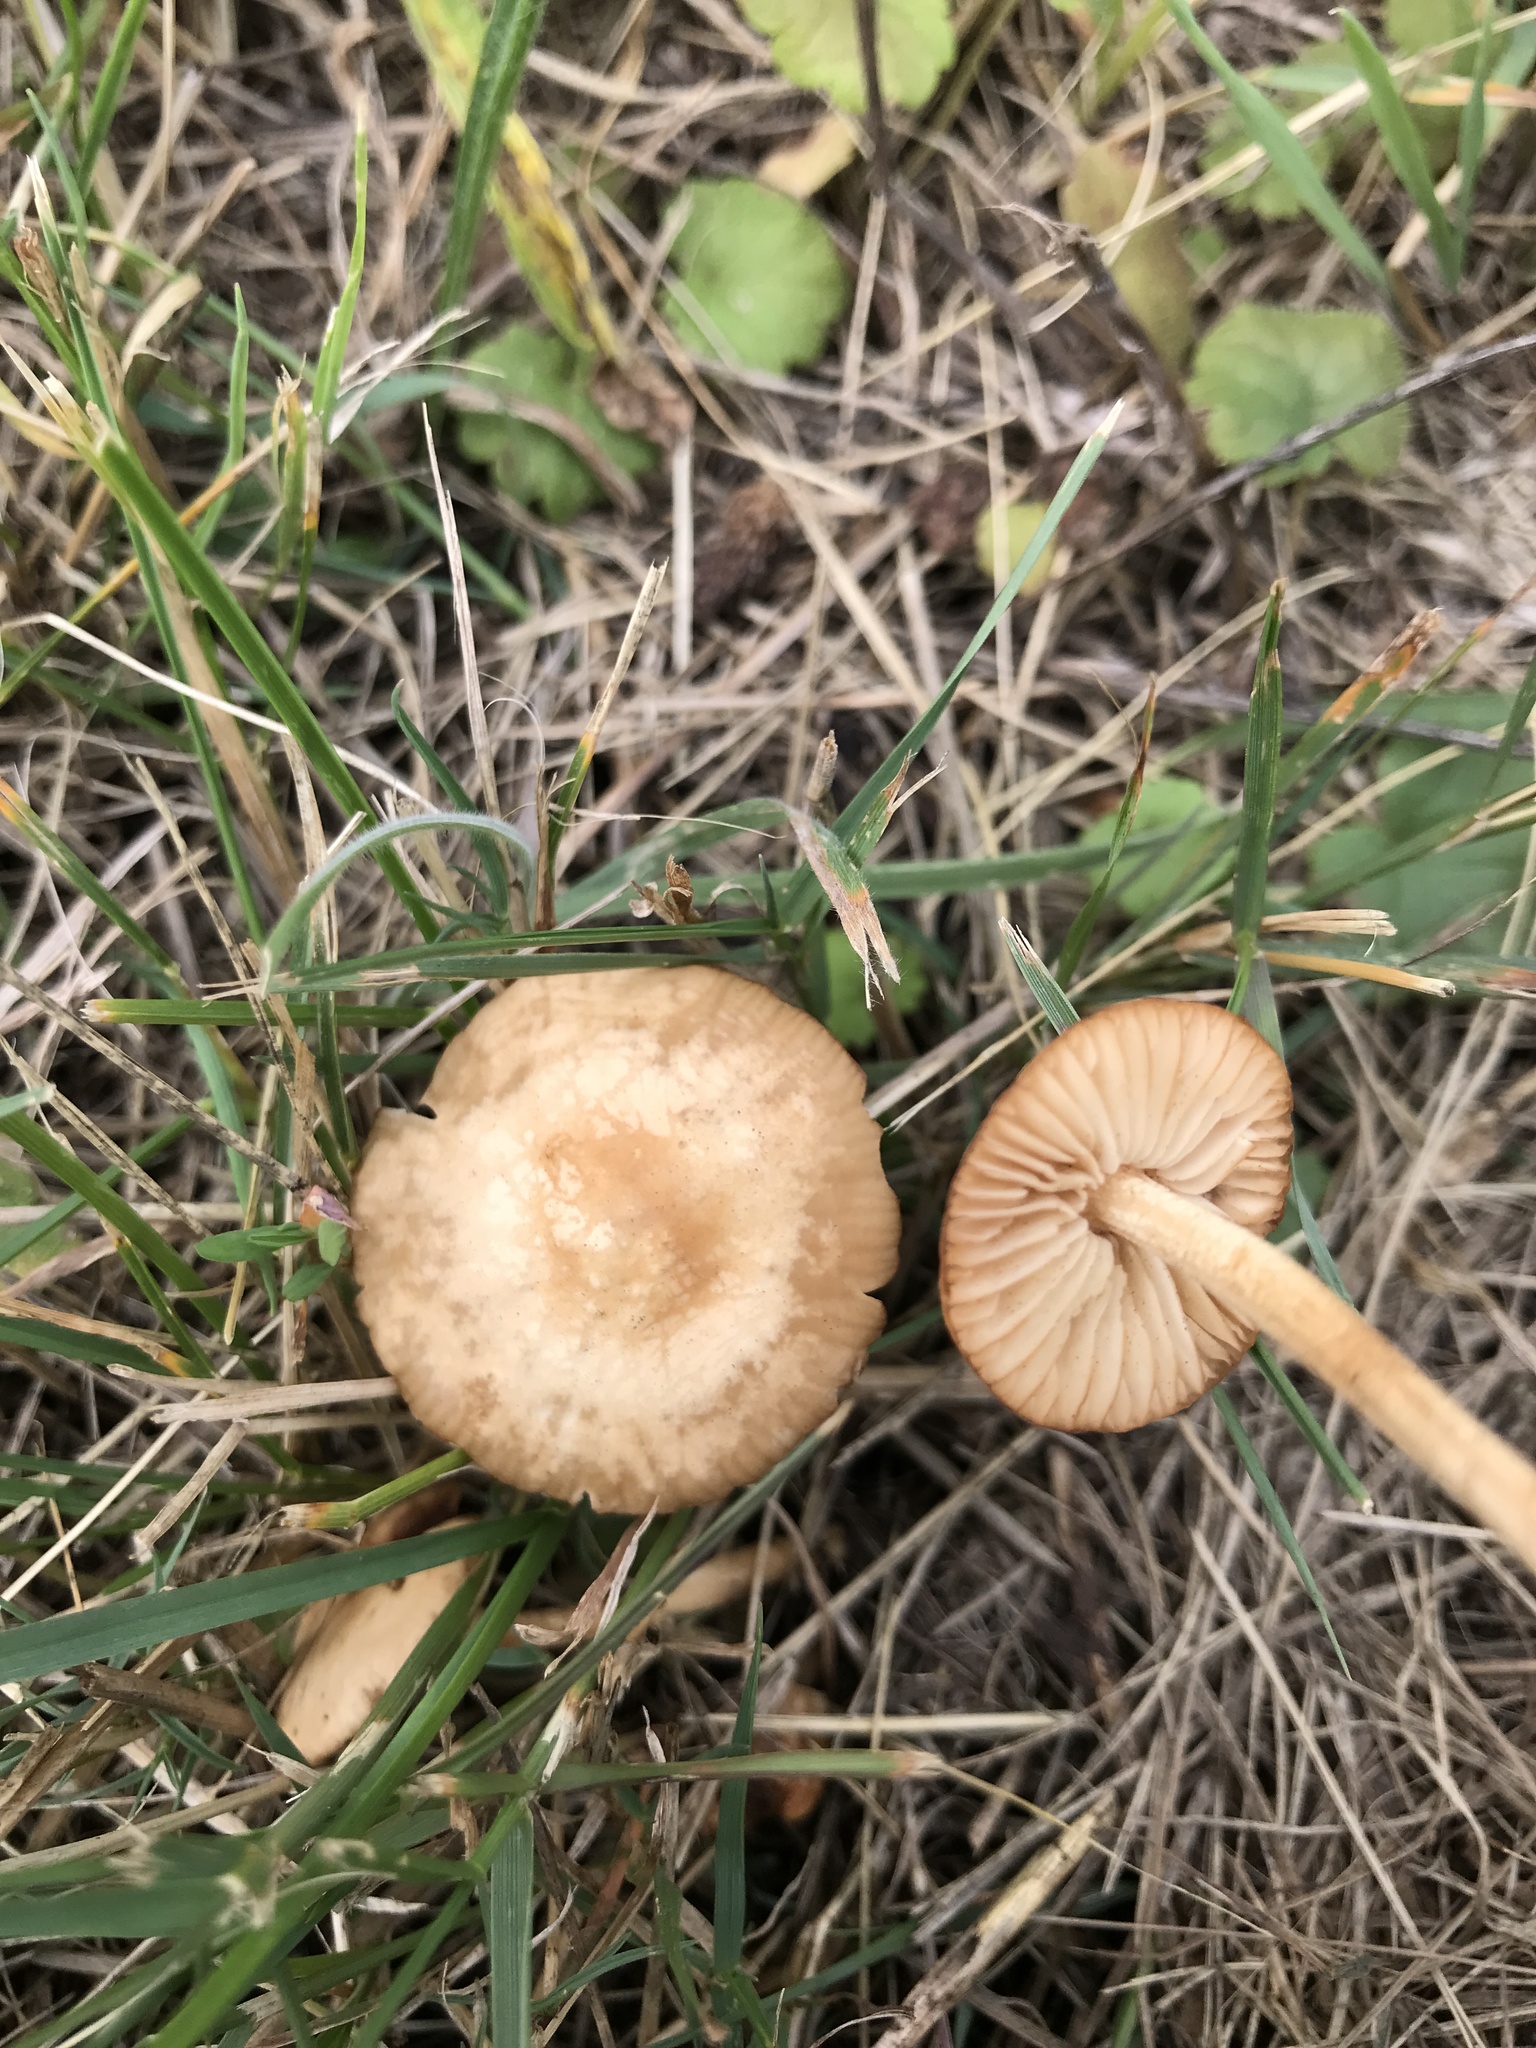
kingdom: Fungi
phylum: Basidiomycota
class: Agaricomycetes
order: Agaricales
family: Marasmiaceae
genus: Marasmius
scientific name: Marasmius oreades
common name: Fairy ring champignon
